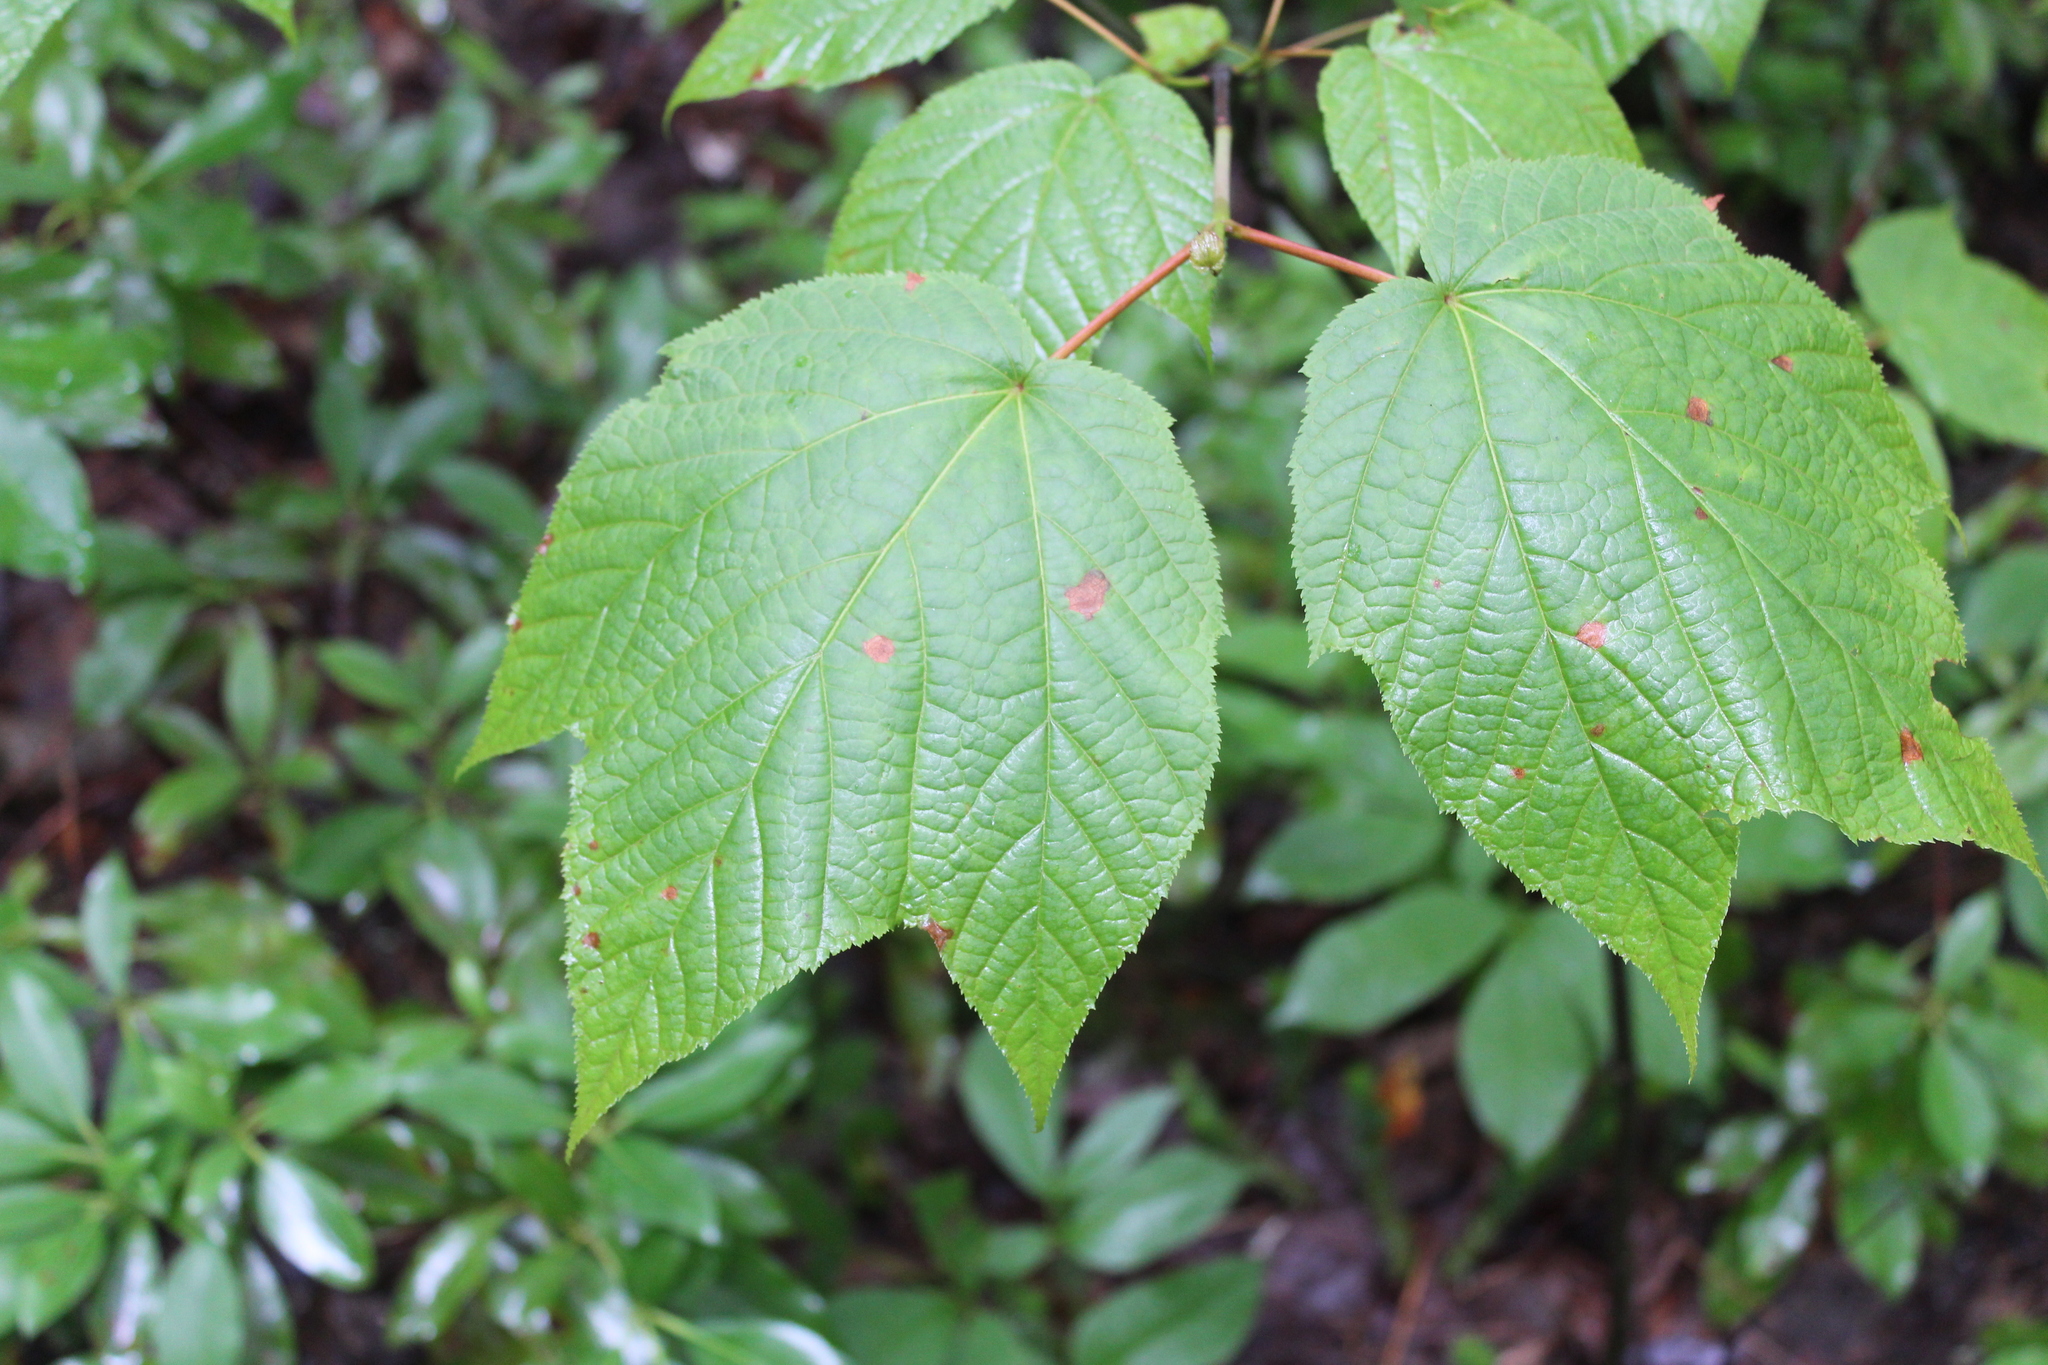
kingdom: Plantae
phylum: Tracheophyta
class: Magnoliopsida
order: Sapindales
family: Sapindaceae
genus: Acer
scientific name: Acer pensylvanicum
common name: Moosewood
